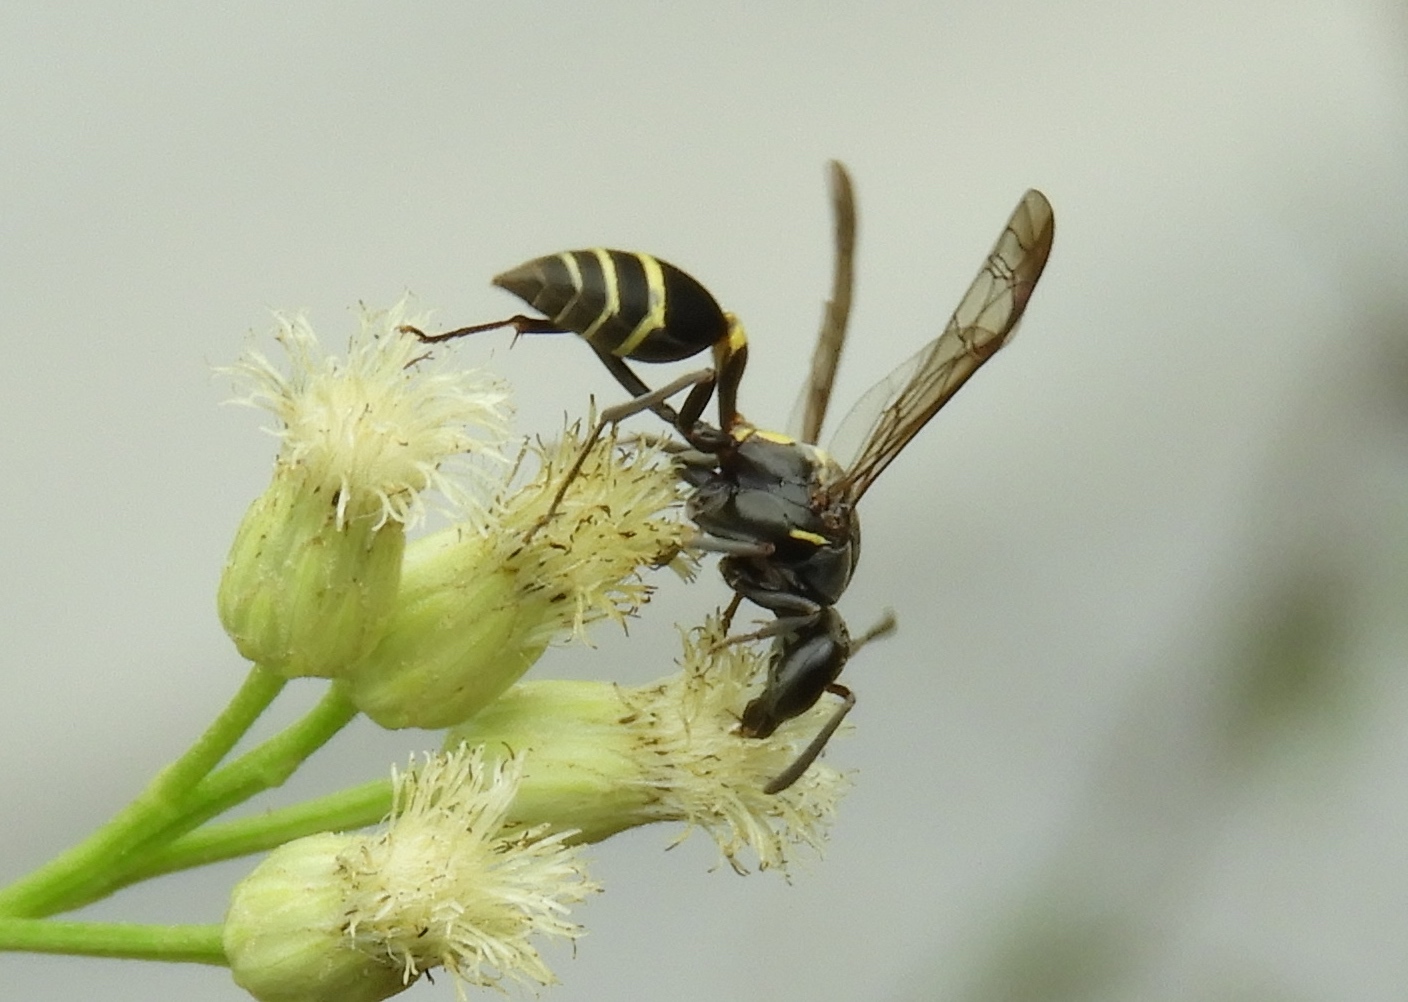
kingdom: Animalia
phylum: Arthropoda
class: Insecta
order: Hymenoptera
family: Vespidae
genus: Myrapetra
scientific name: Myrapetra
